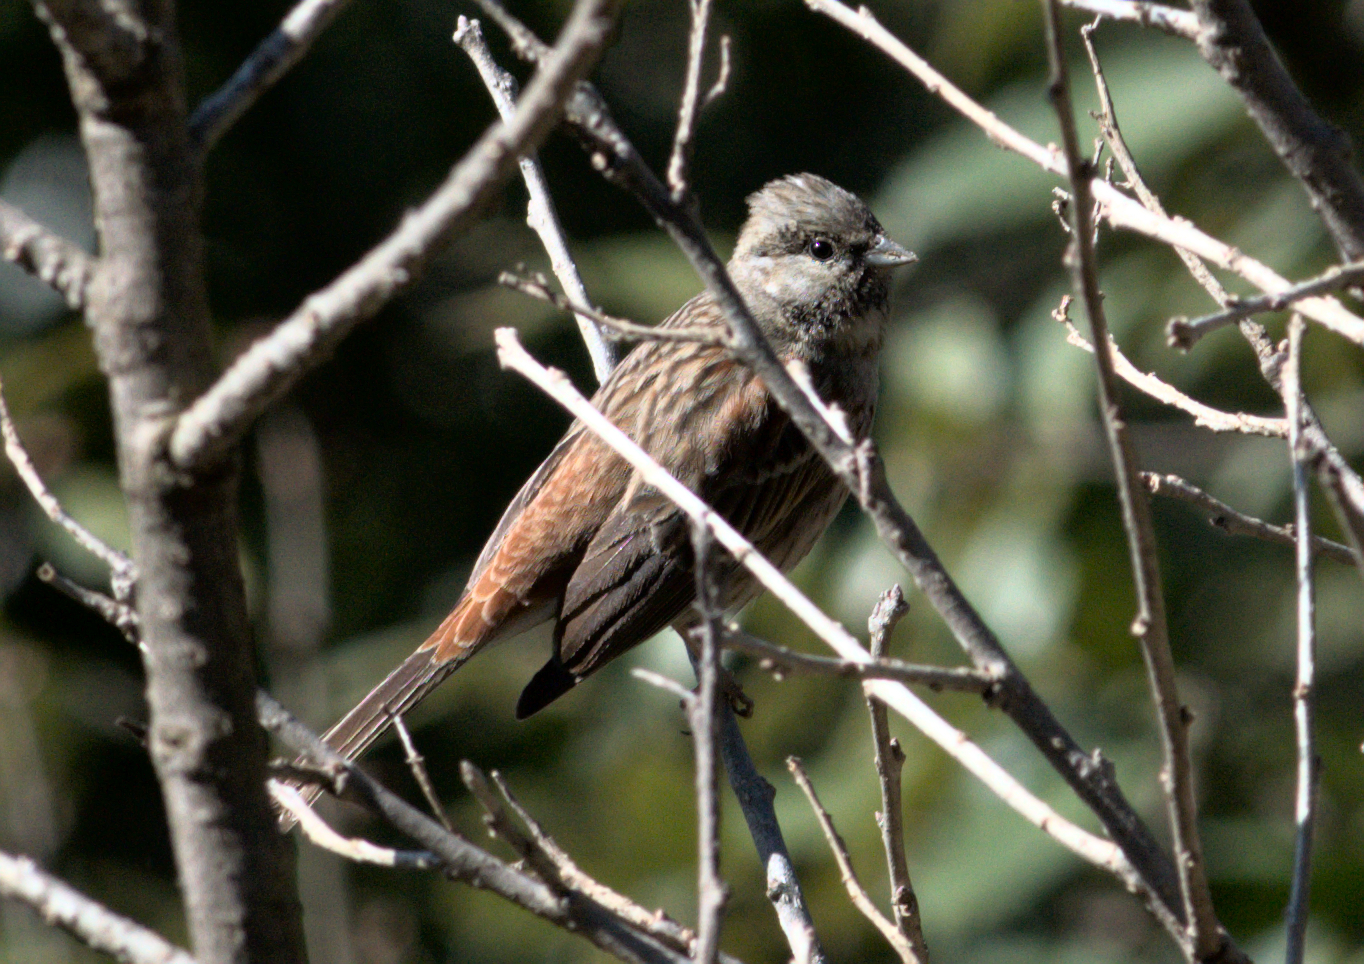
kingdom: Animalia
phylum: Chordata
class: Aves
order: Passeriformes
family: Emberizidae
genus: Emberiza
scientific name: Emberiza stewarti
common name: White-capped bunting
